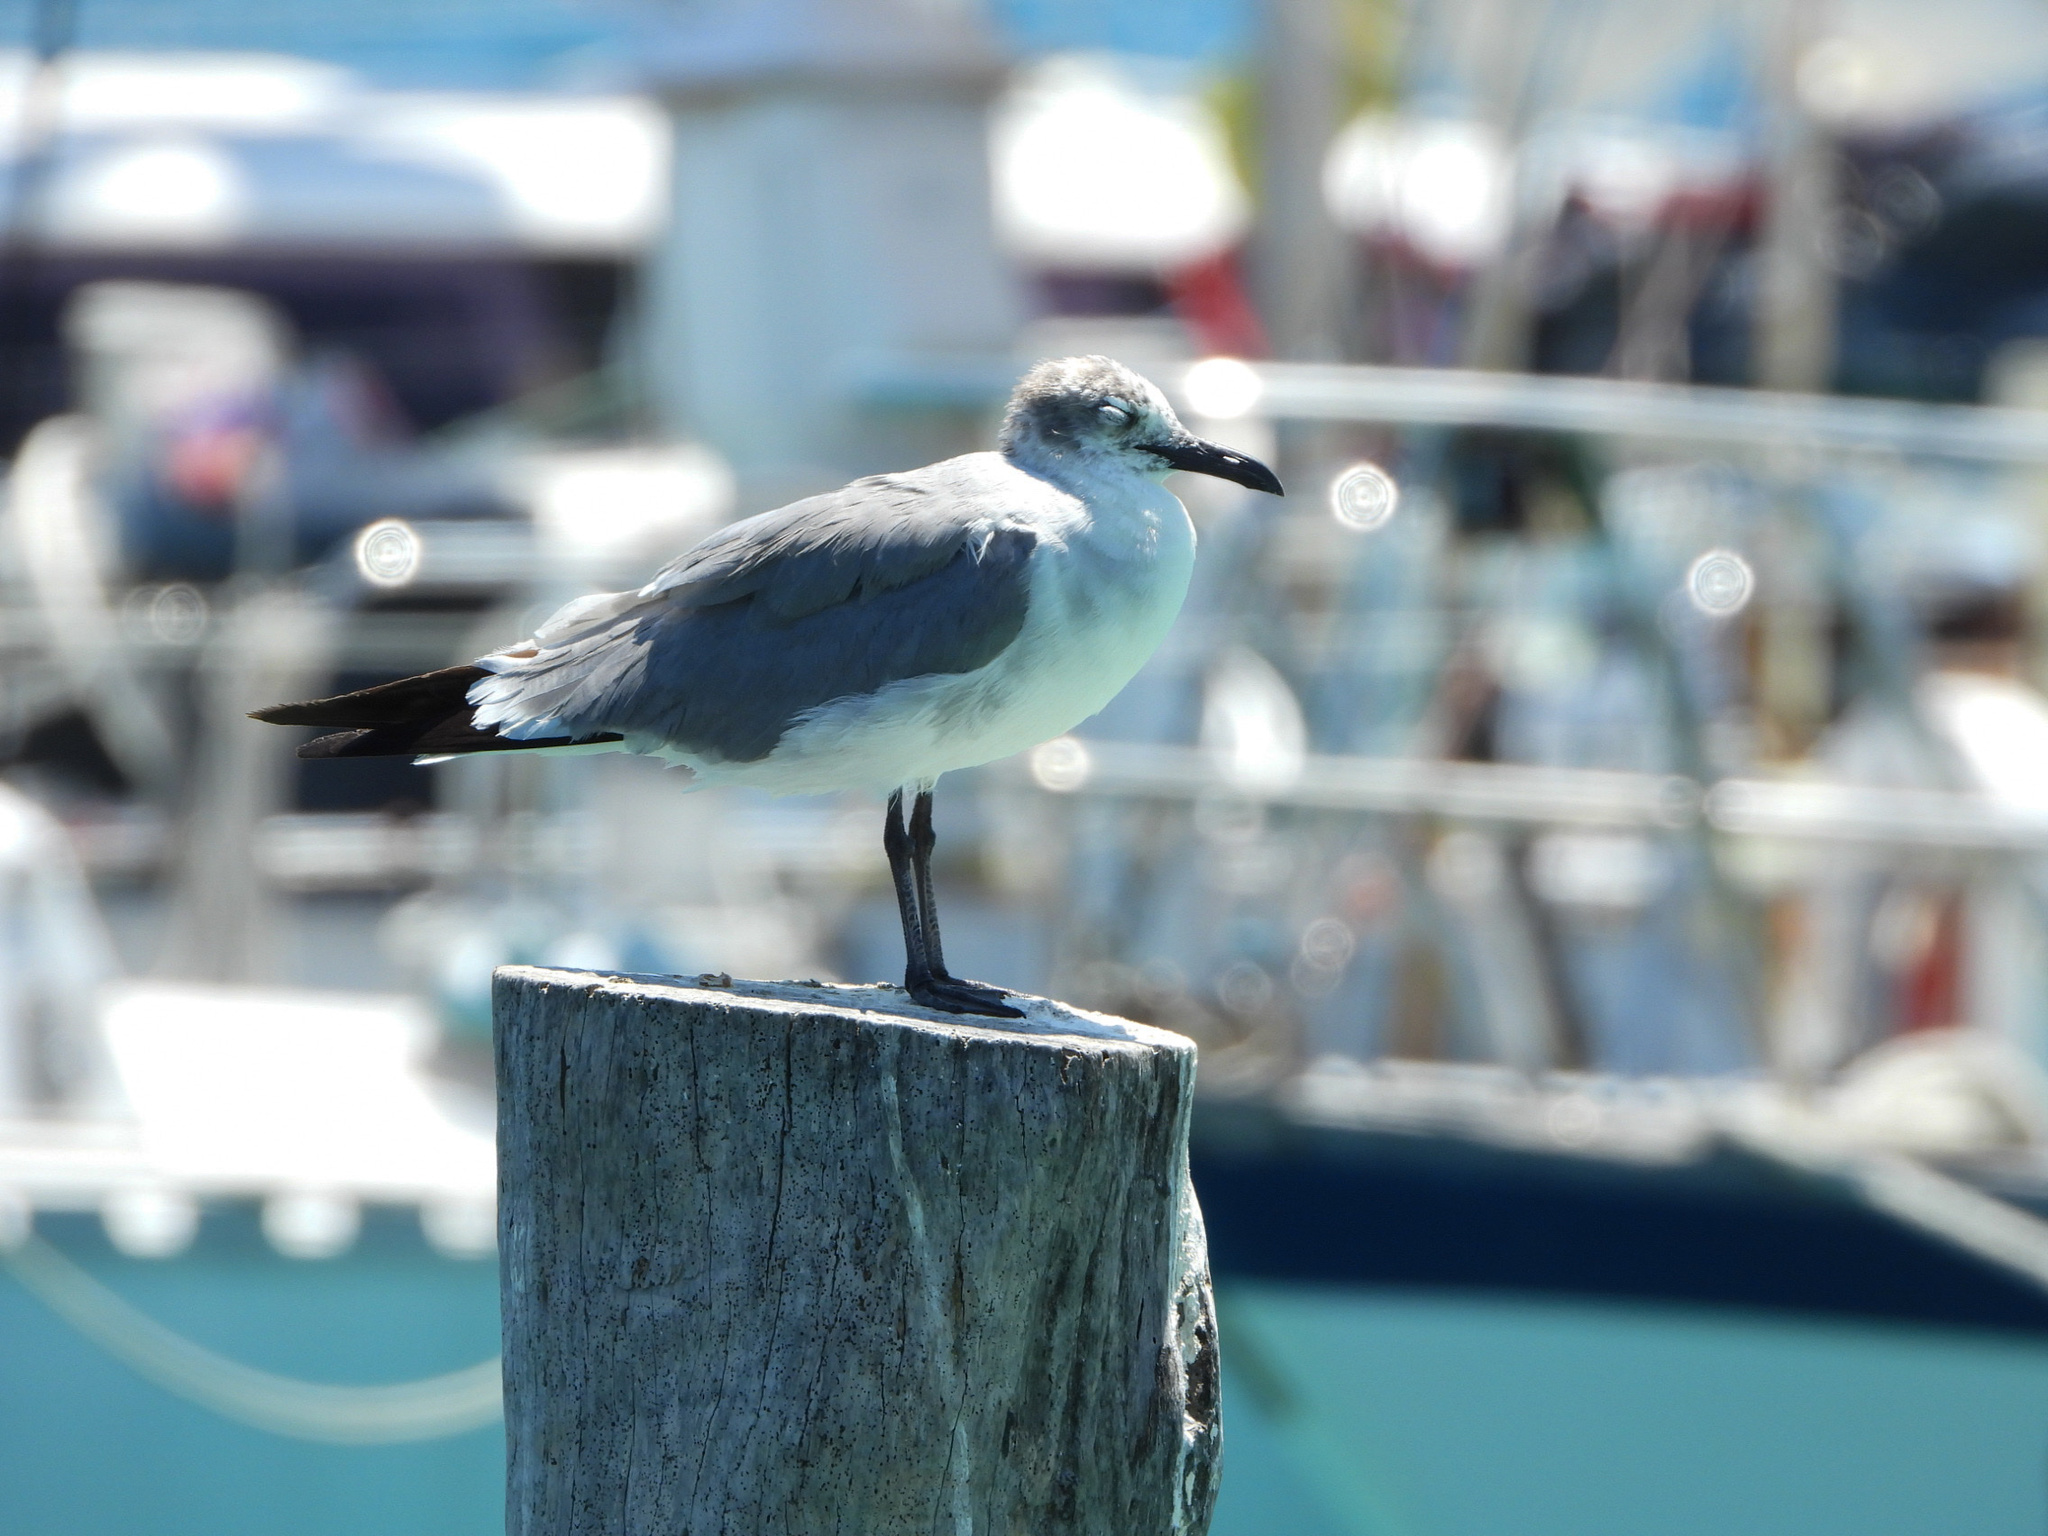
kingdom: Animalia
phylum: Chordata
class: Aves
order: Charadriiformes
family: Laridae
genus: Leucophaeus
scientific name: Leucophaeus atricilla
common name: Laughing gull
